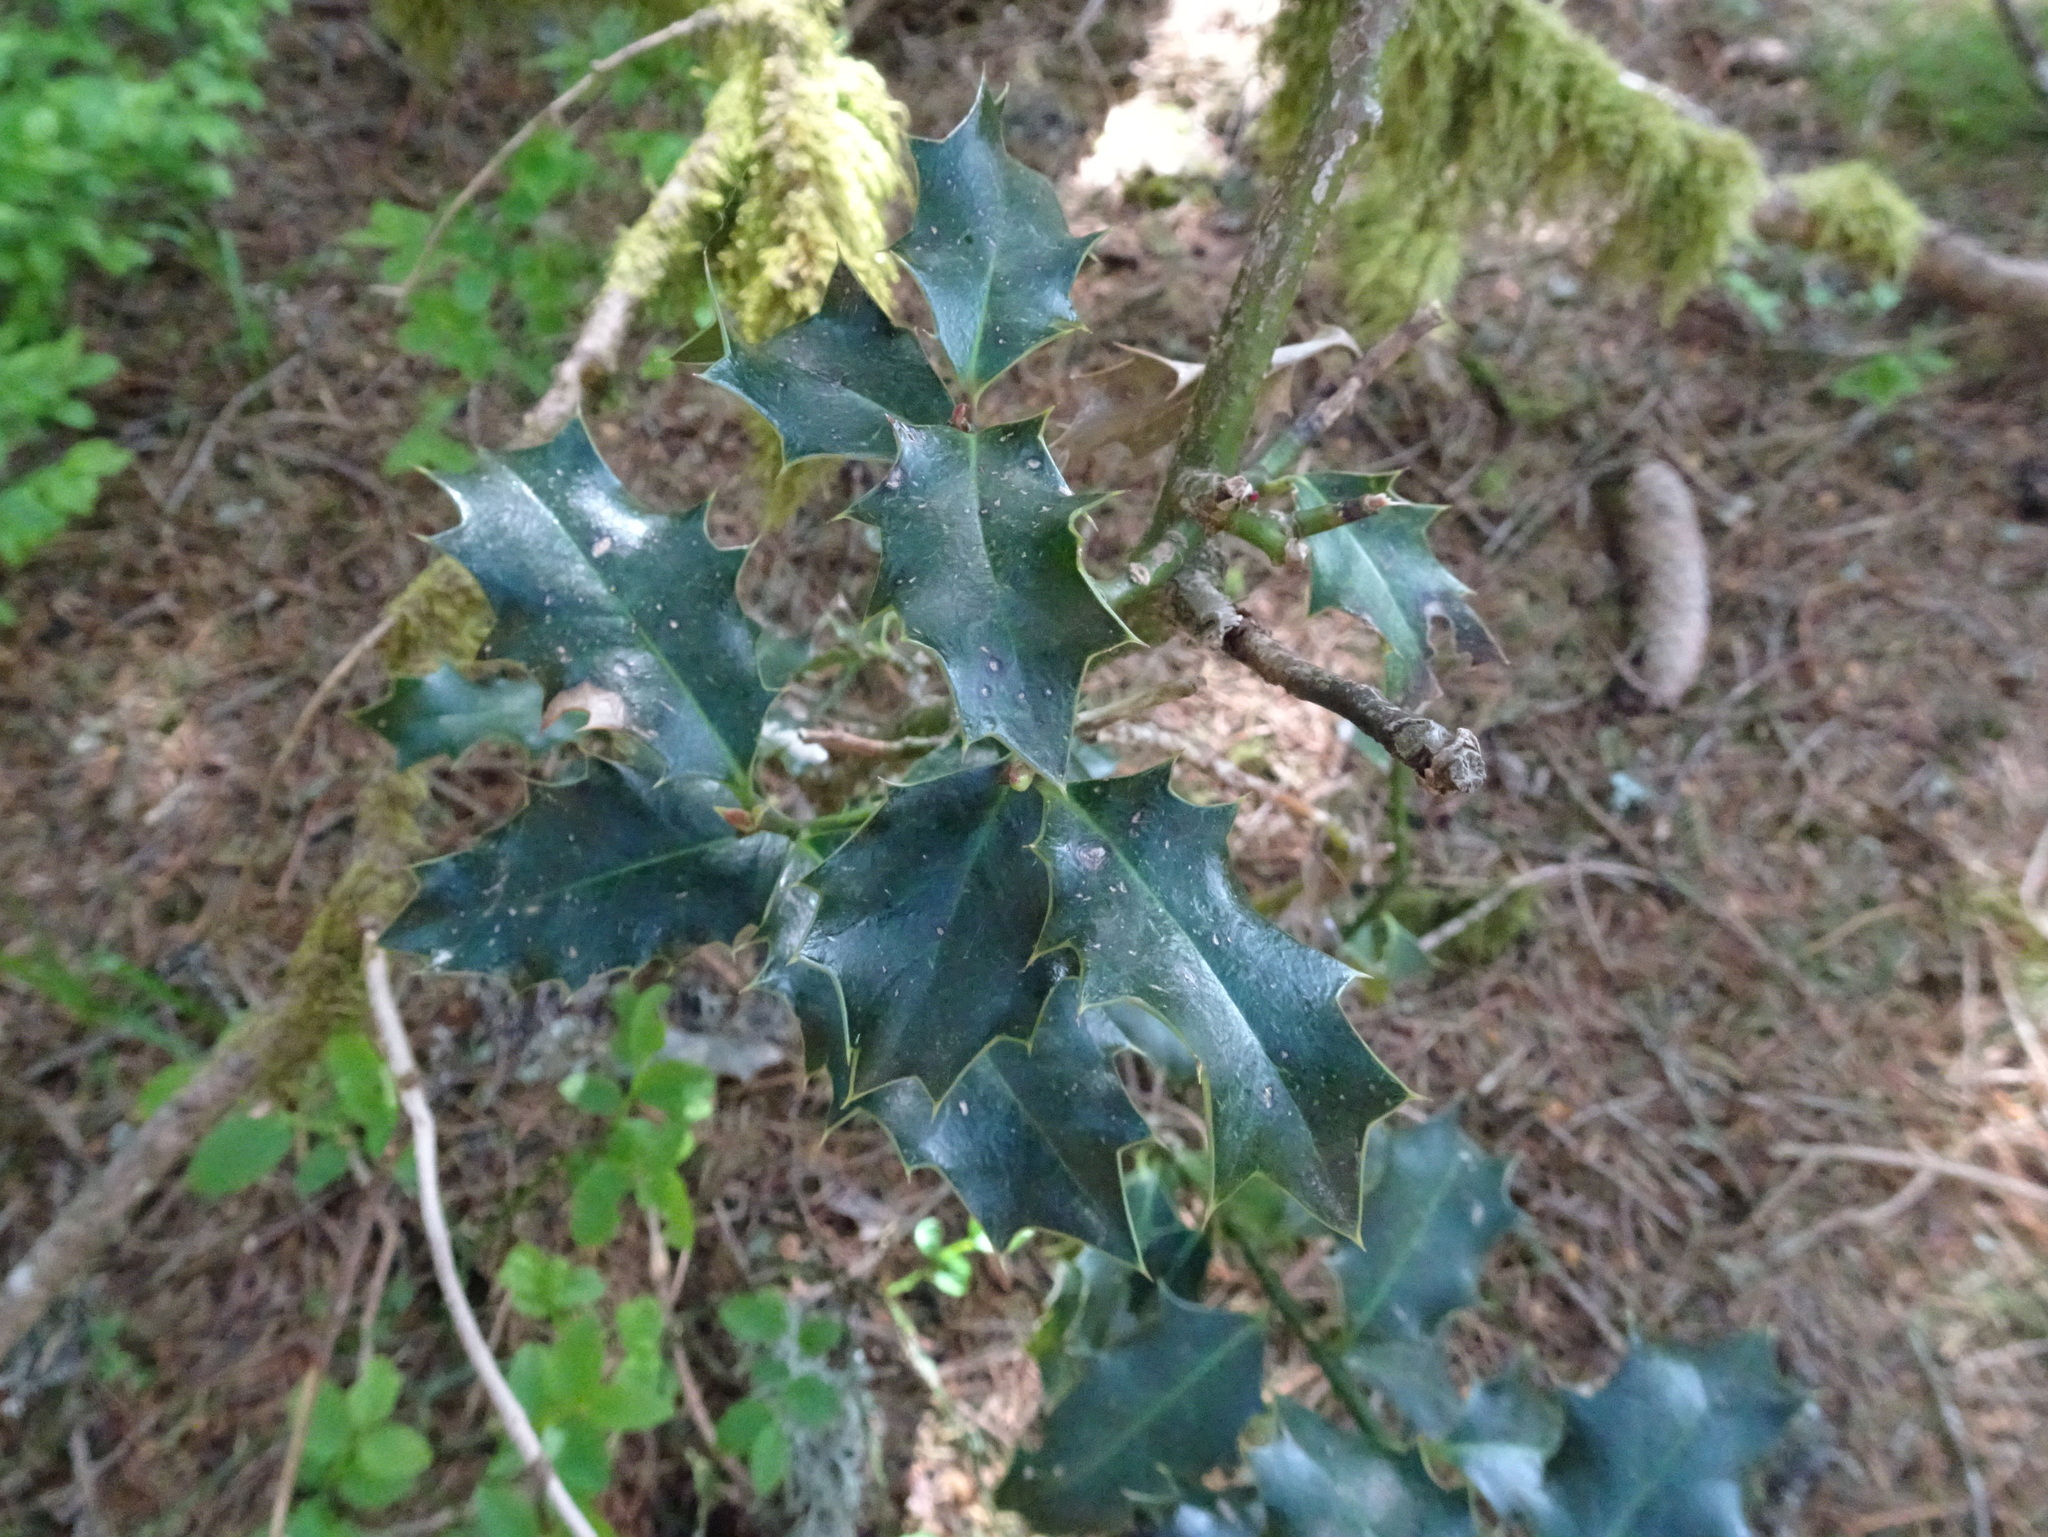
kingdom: Plantae
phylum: Tracheophyta
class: Magnoliopsida
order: Aquifoliales
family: Aquifoliaceae
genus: Ilex
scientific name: Ilex aquifolium
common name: English holly
